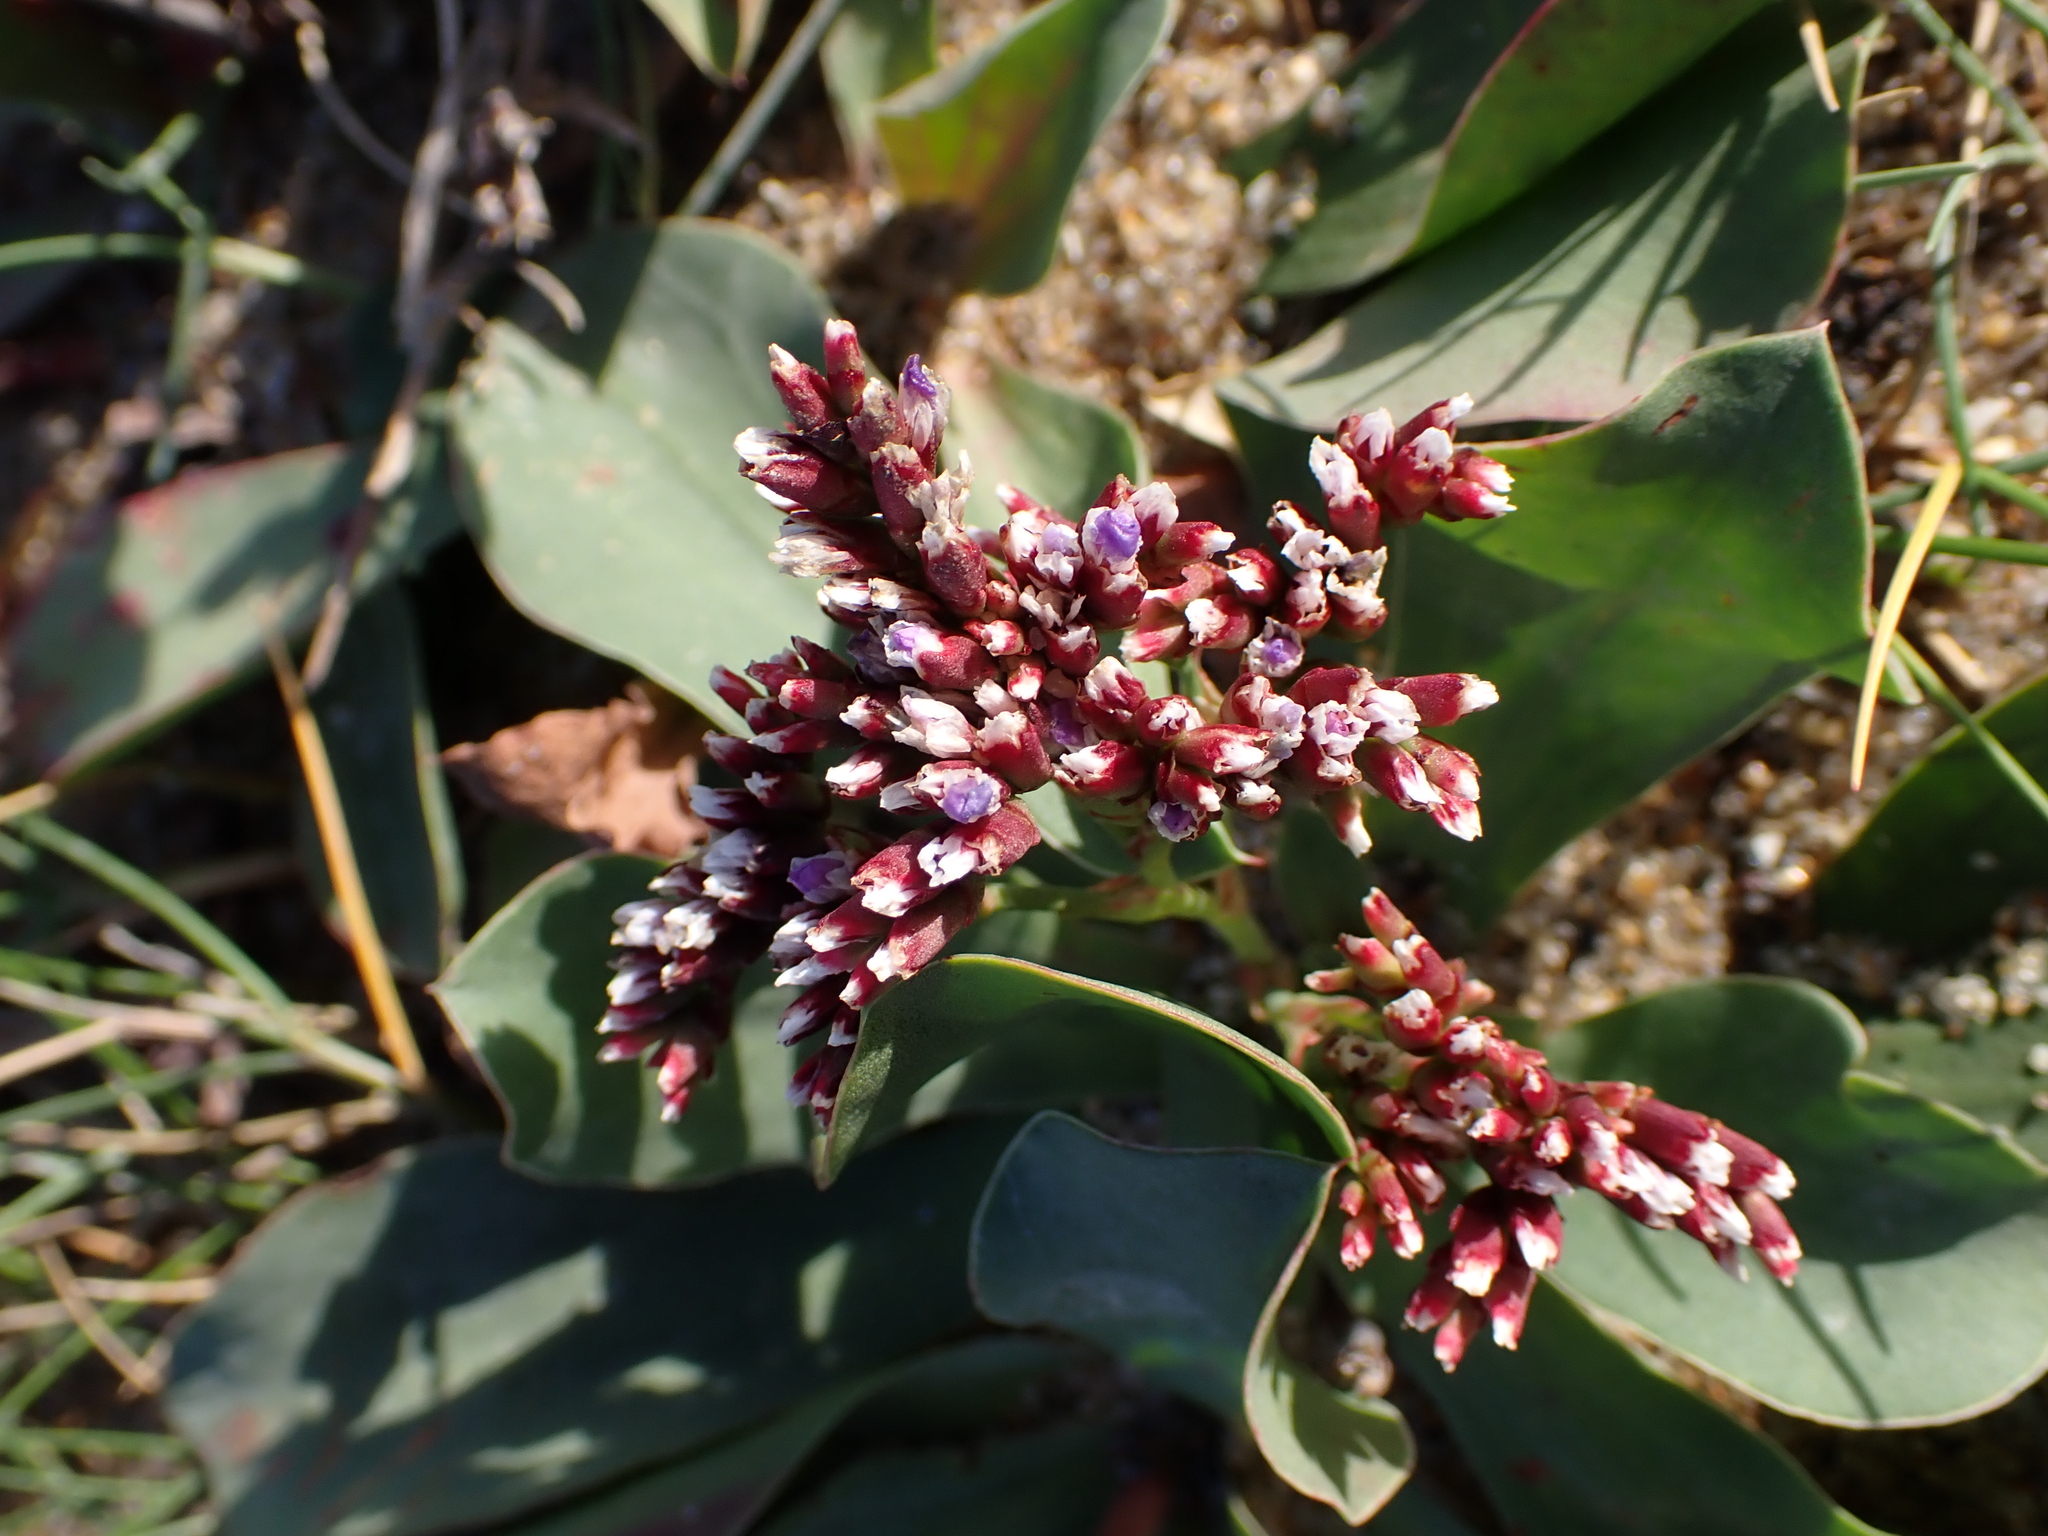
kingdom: Plantae
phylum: Tracheophyta
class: Magnoliopsida
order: Caryophyllales
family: Plumbaginaceae
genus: Limonium
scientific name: Limonium normannicum
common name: Alderney sea-lavender
